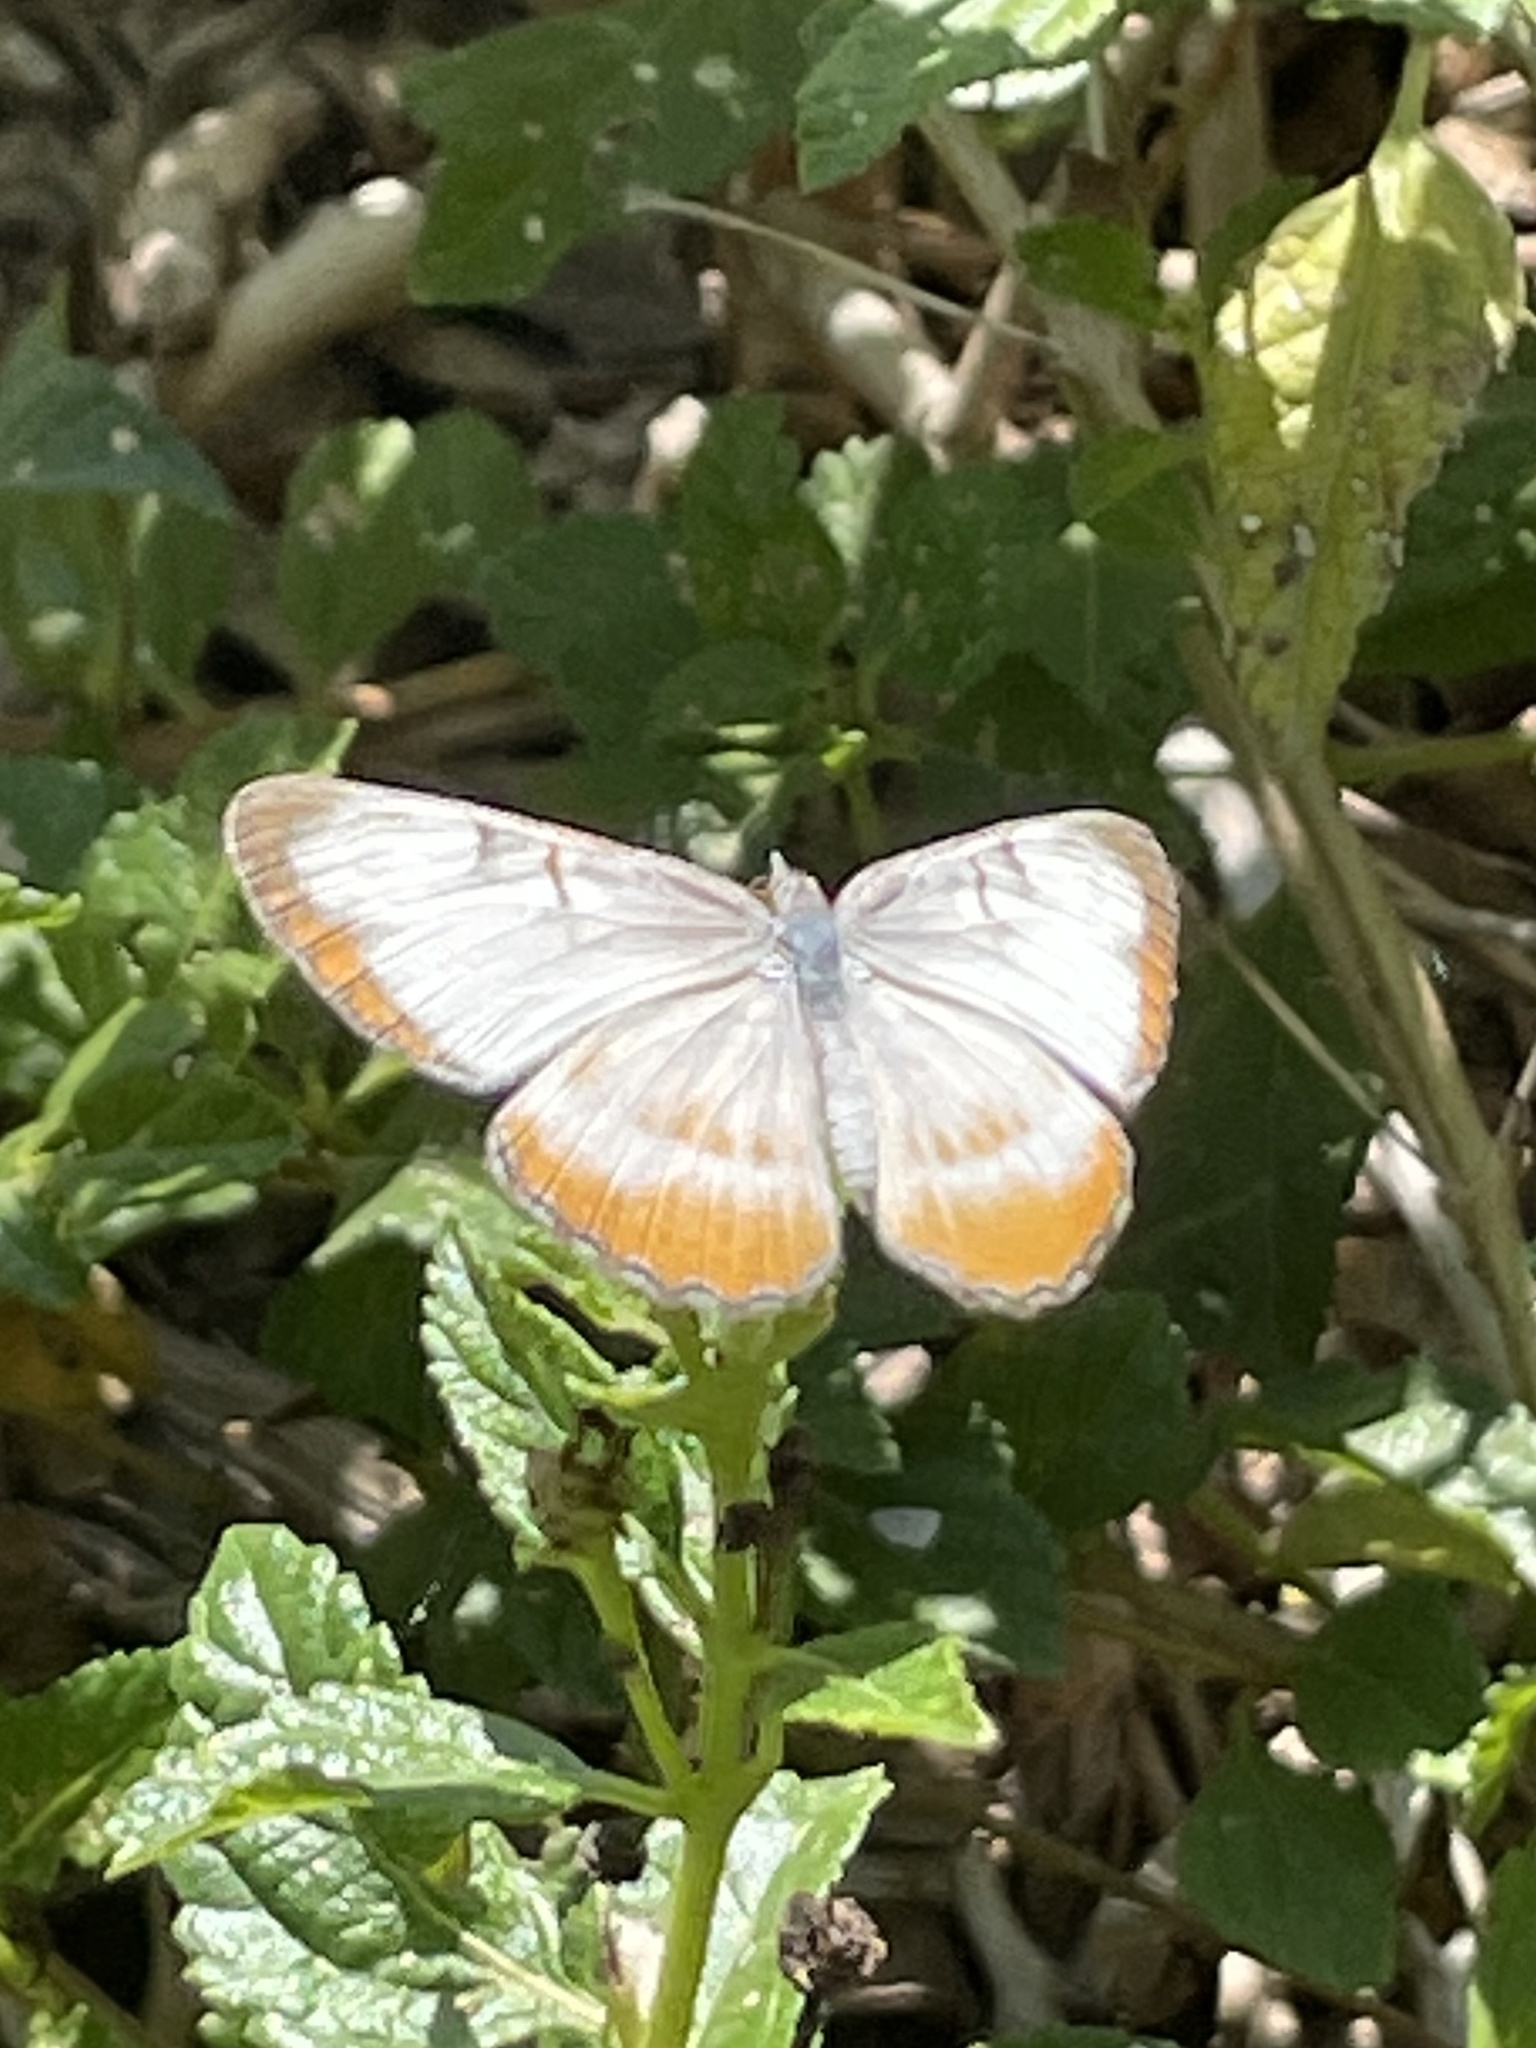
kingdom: Animalia
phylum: Arthropoda
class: Insecta
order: Lepidoptera
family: Nymphalidae
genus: Mestra
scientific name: Mestra amymone
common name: Common mestra
